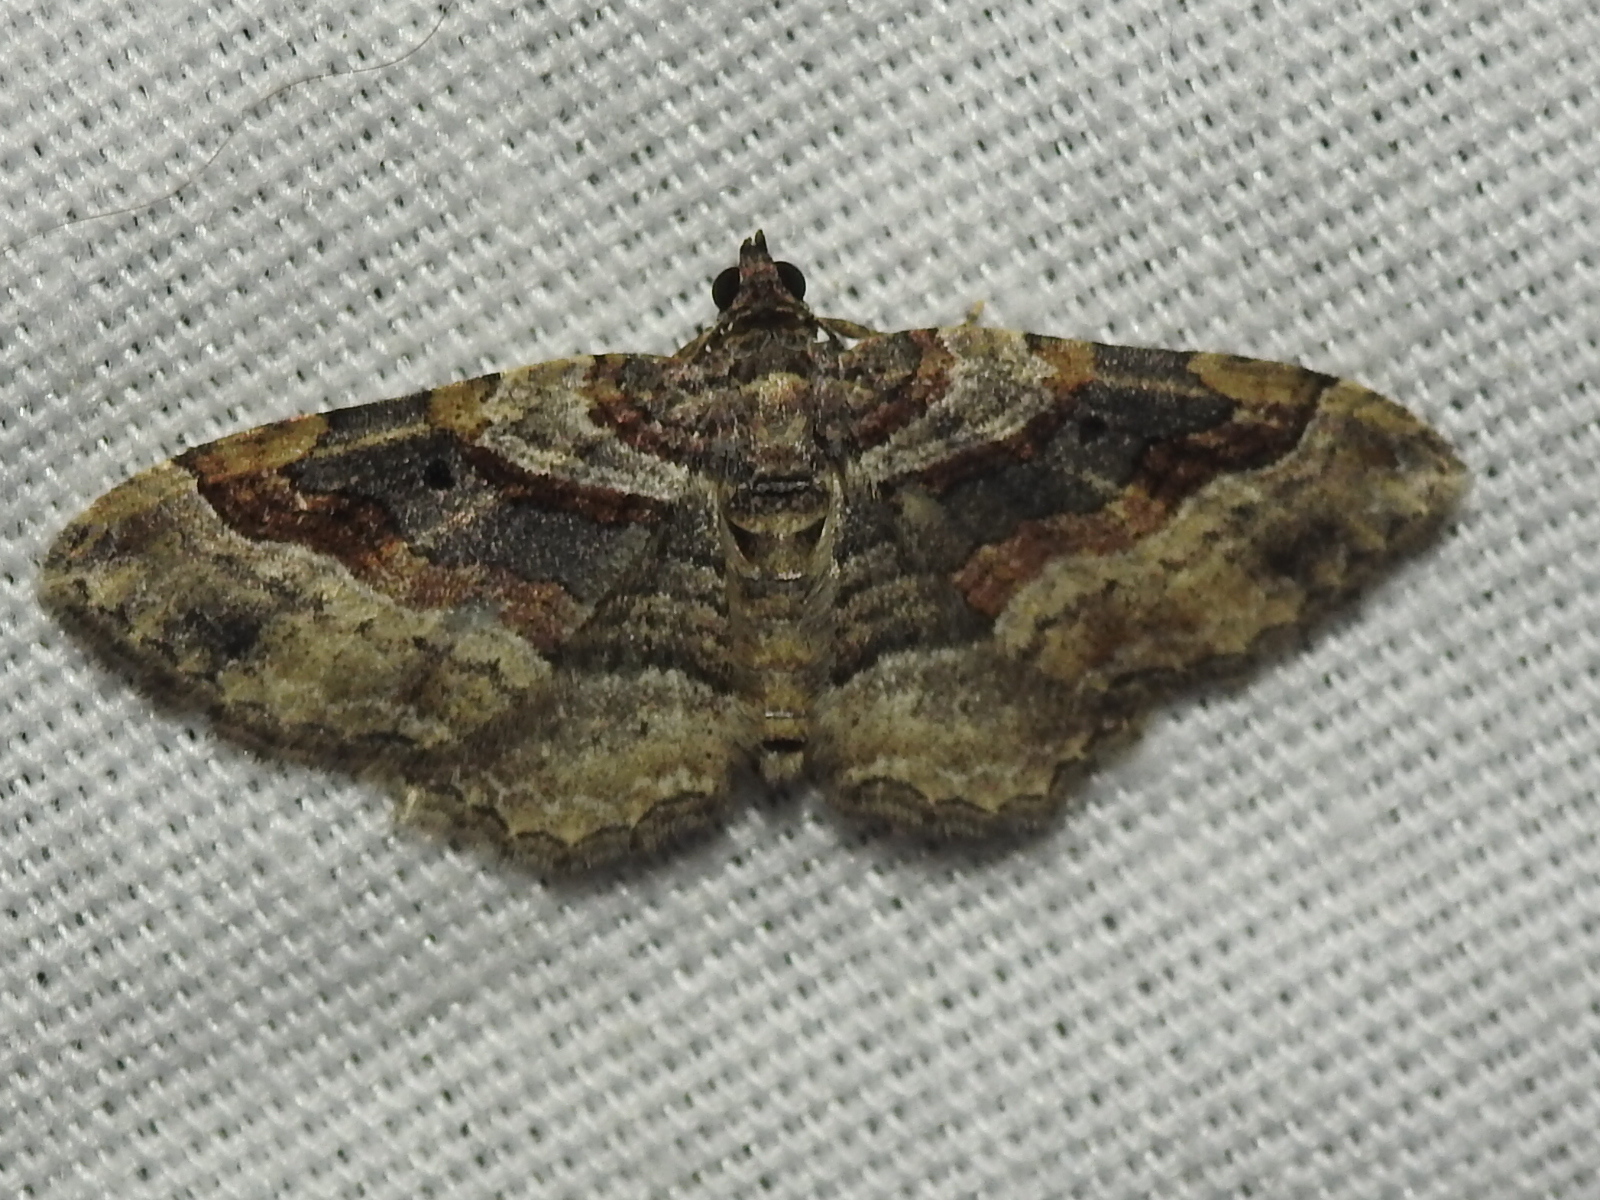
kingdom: Animalia
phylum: Arthropoda
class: Insecta
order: Lepidoptera
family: Geometridae
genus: Costaconvexa
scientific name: Costaconvexa centrostrigaria
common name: Bent-line carpet
